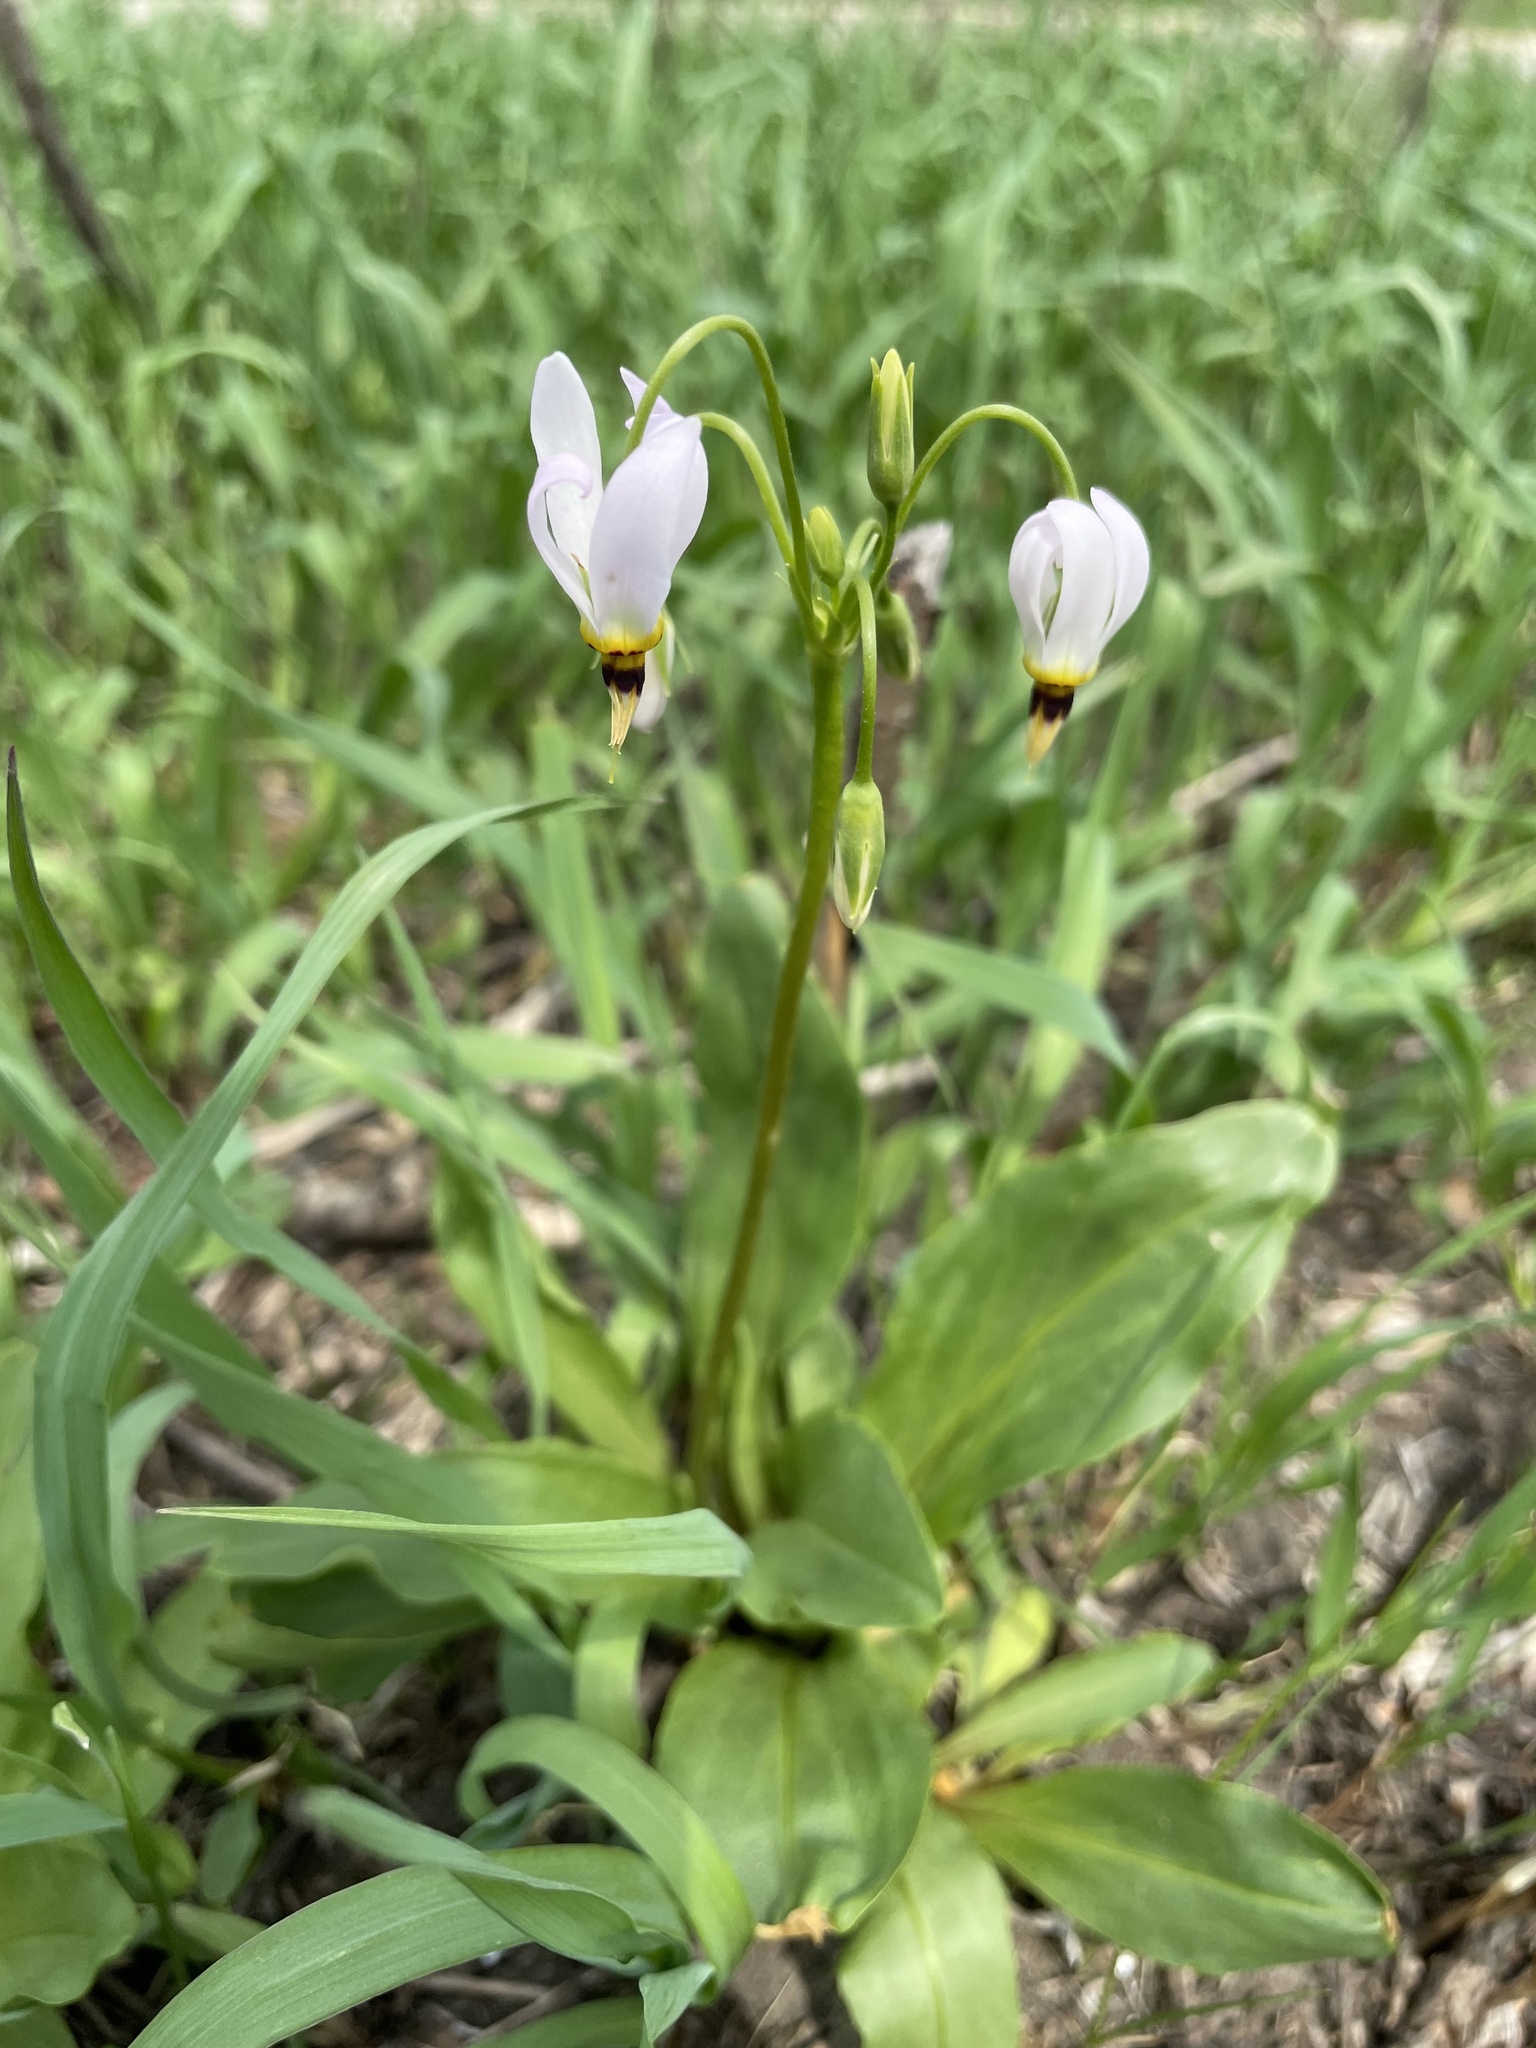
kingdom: Plantae
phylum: Tracheophyta
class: Magnoliopsida
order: Ericales
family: Primulaceae
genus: Dodecatheon
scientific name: Dodecatheon meadia
